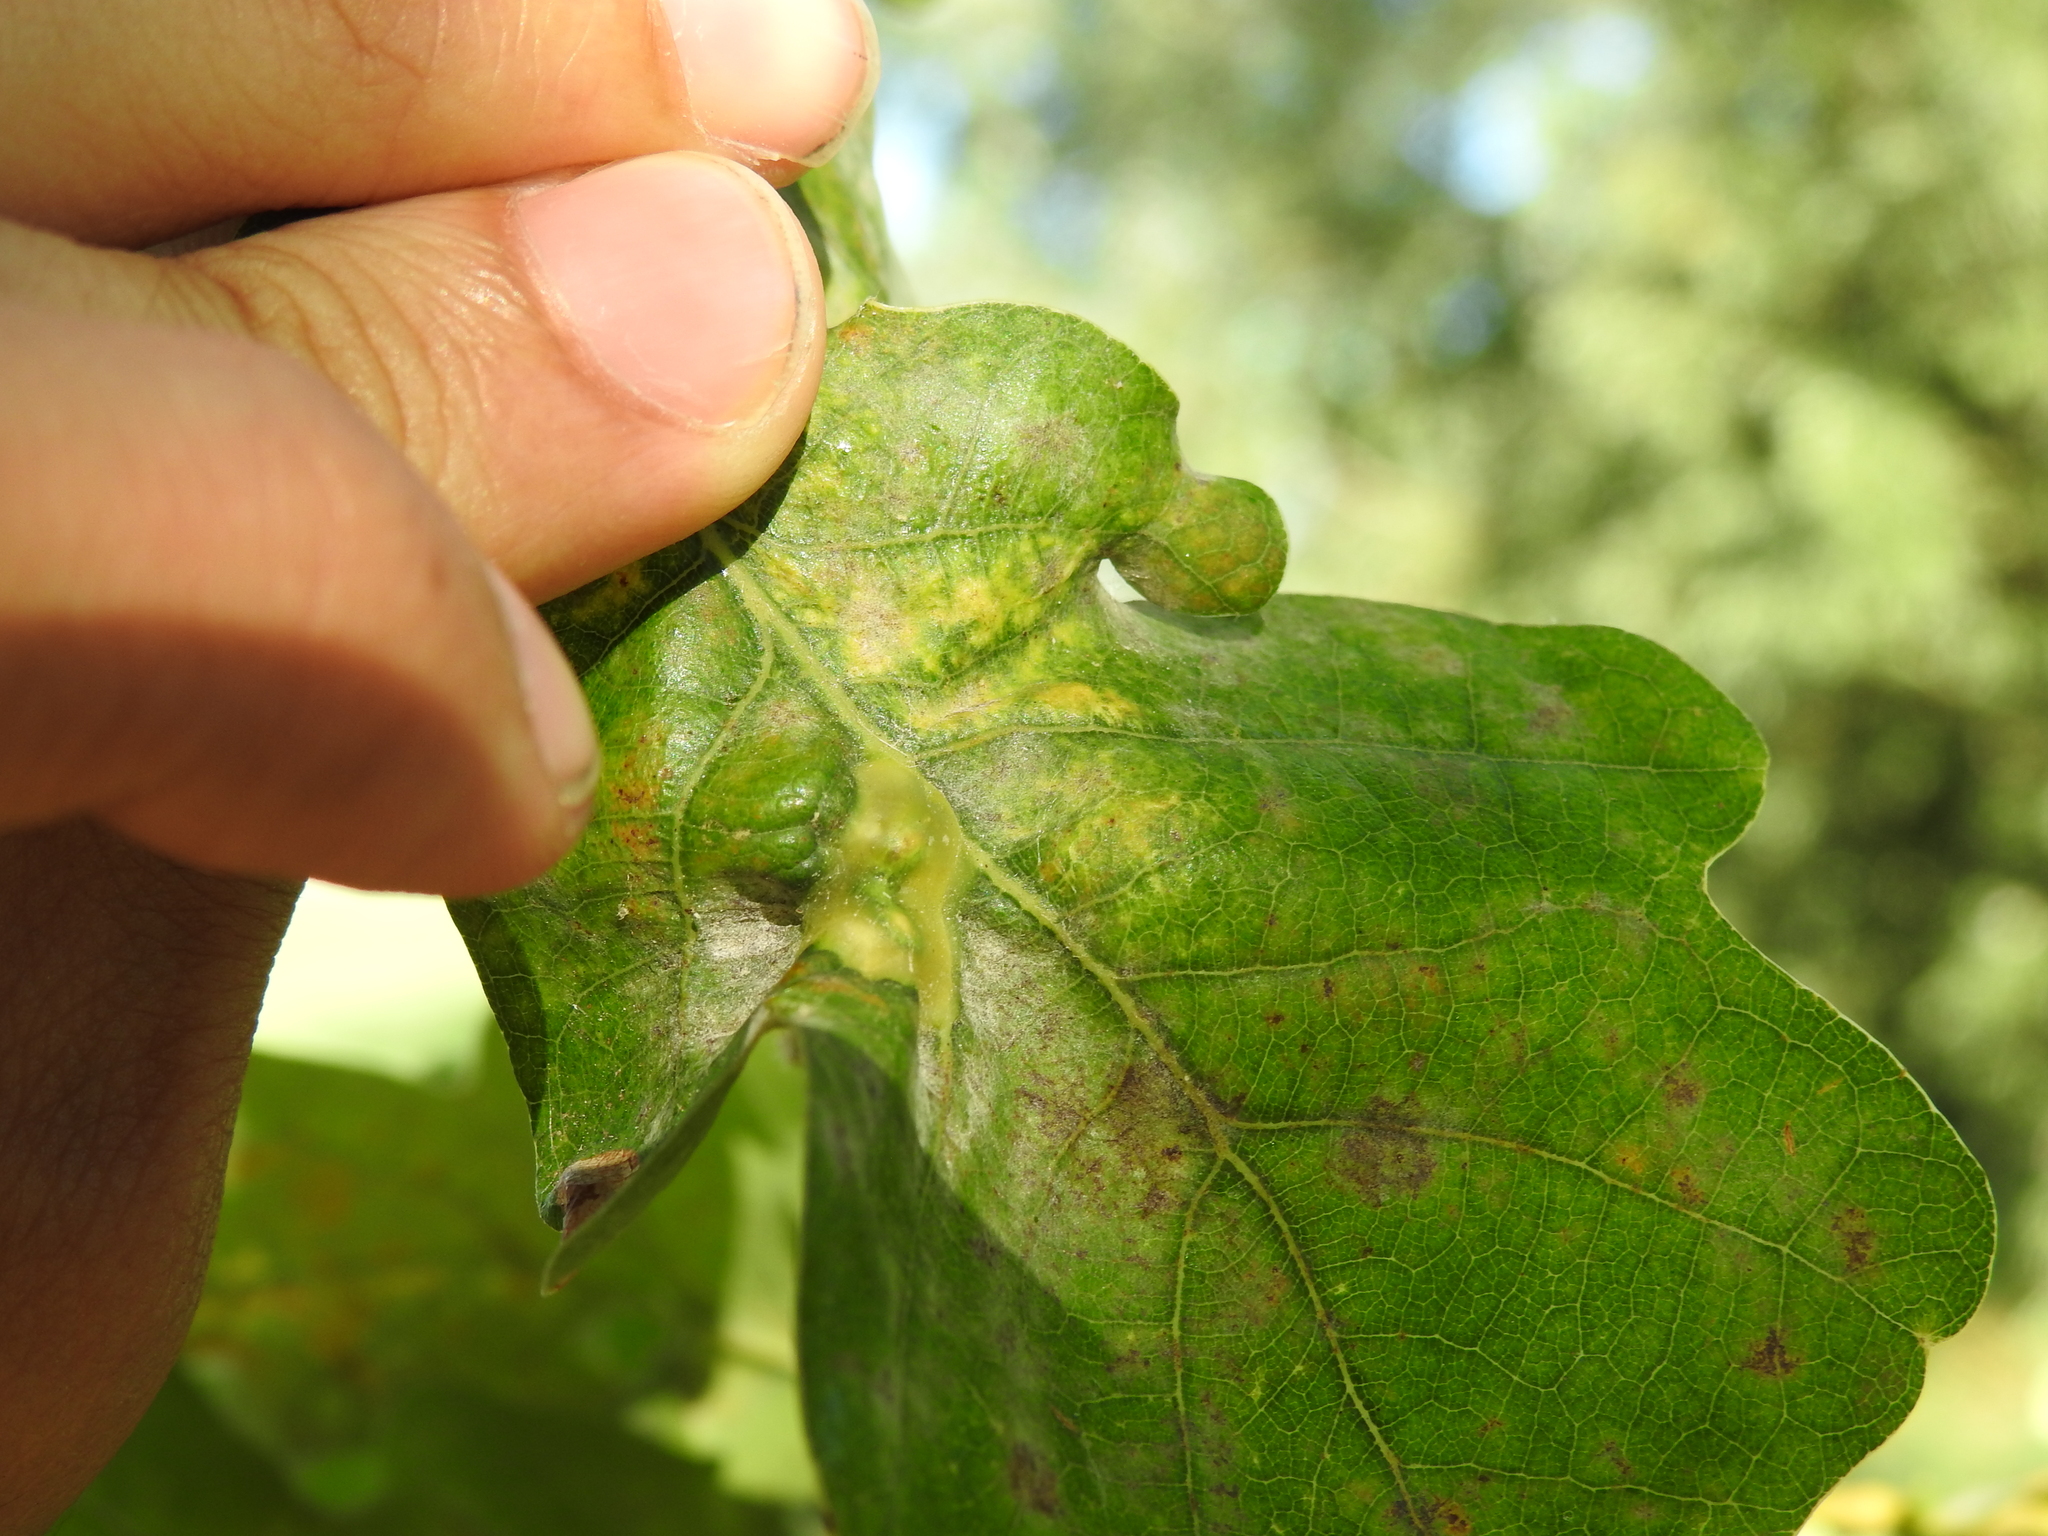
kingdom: Animalia
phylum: Arthropoda
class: Insecta
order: Hymenoptera
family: Cynipidae
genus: Andricus
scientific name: Andricus curvator
